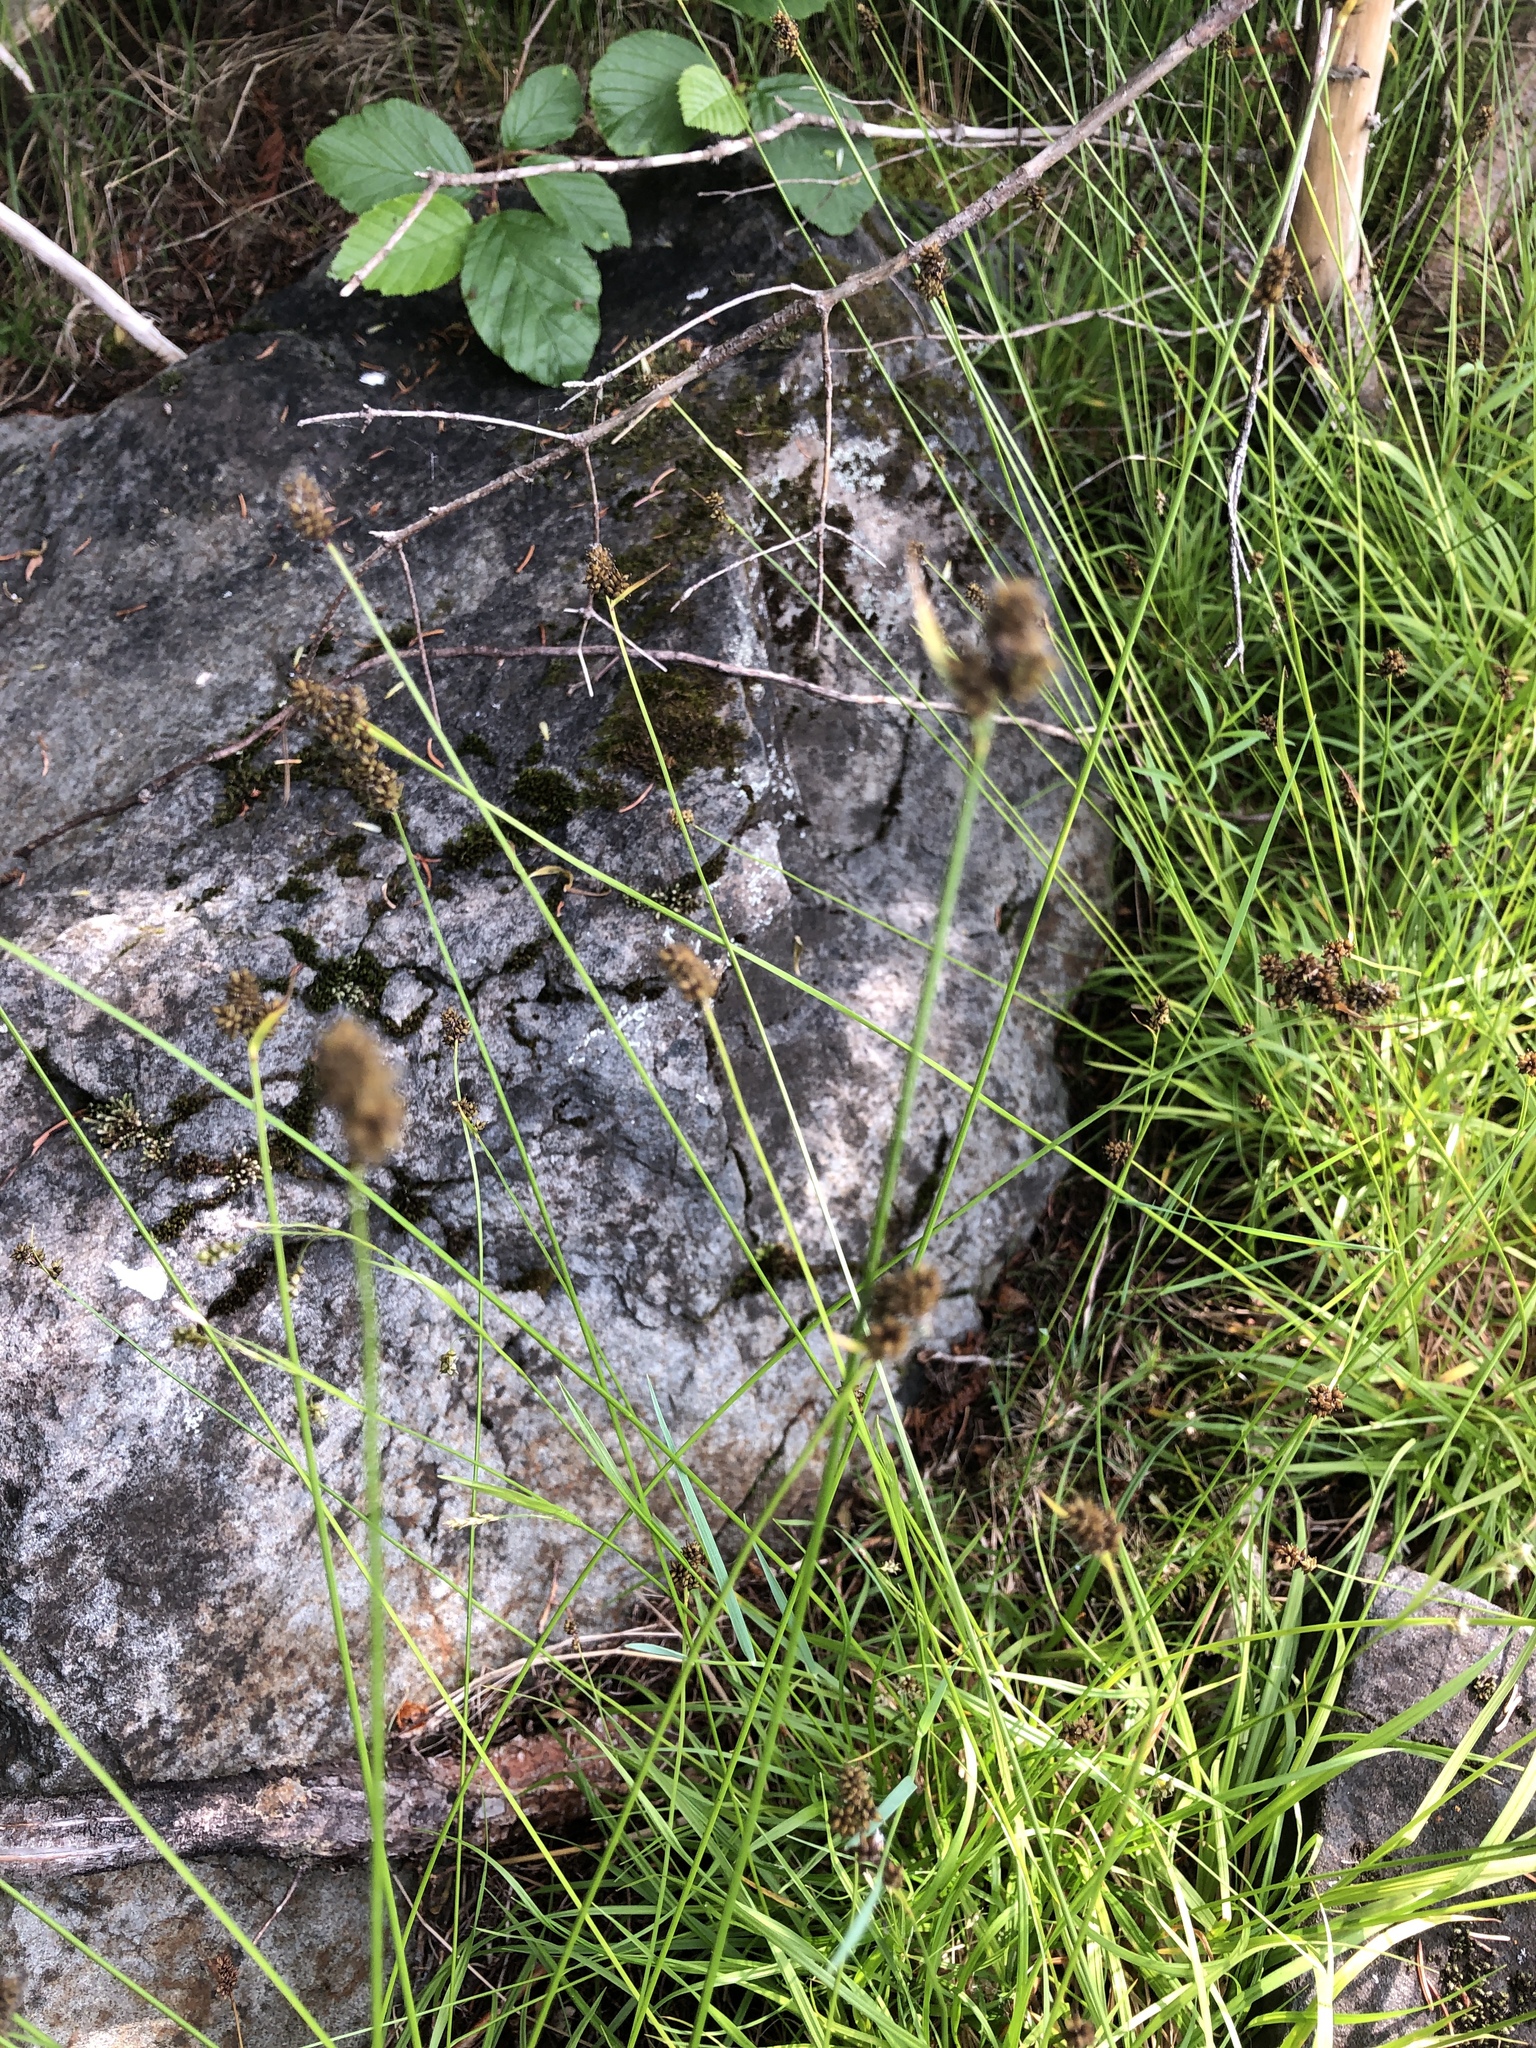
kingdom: Plantae
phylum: Tracheophyta
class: Liliopsida
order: Poales
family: Cyperaceae
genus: Carex
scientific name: Carex media
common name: Alpine sedge
